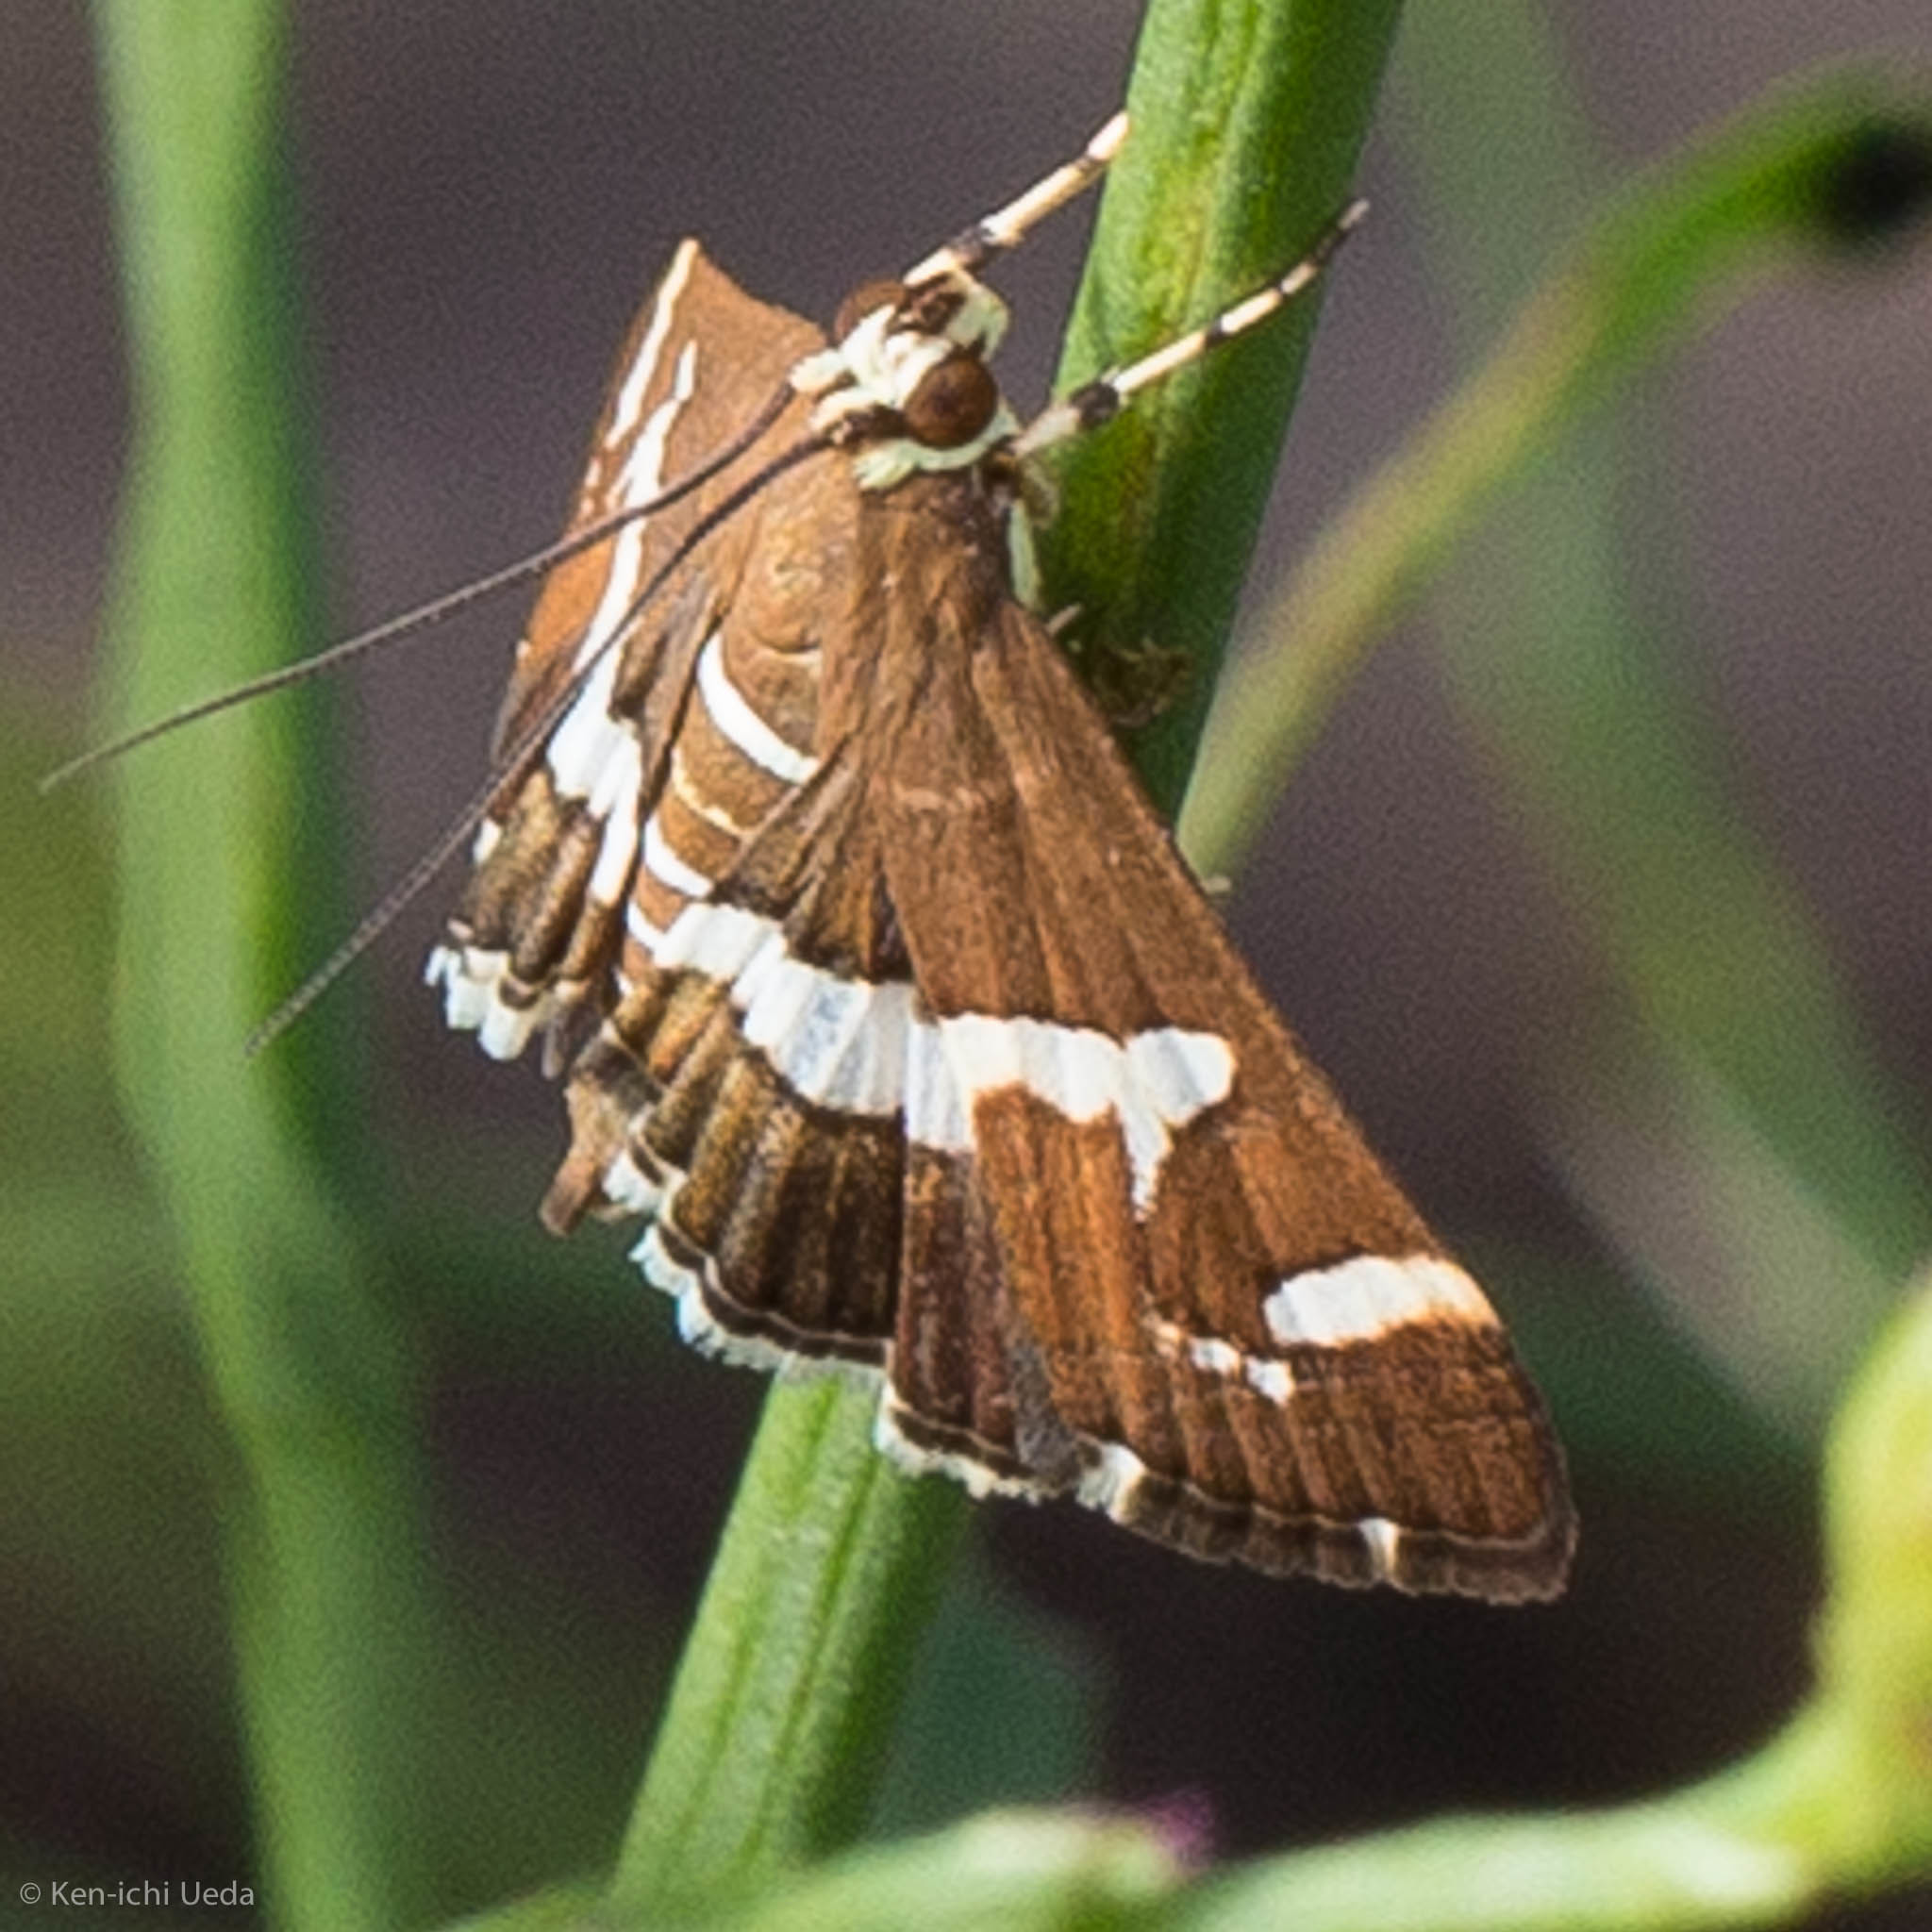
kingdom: Animalia
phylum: Arthropoda
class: Insecta
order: Lepidoptera
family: Crambidae
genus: Spoladea
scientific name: Spoladea recurvalis
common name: Beet webworm moth
